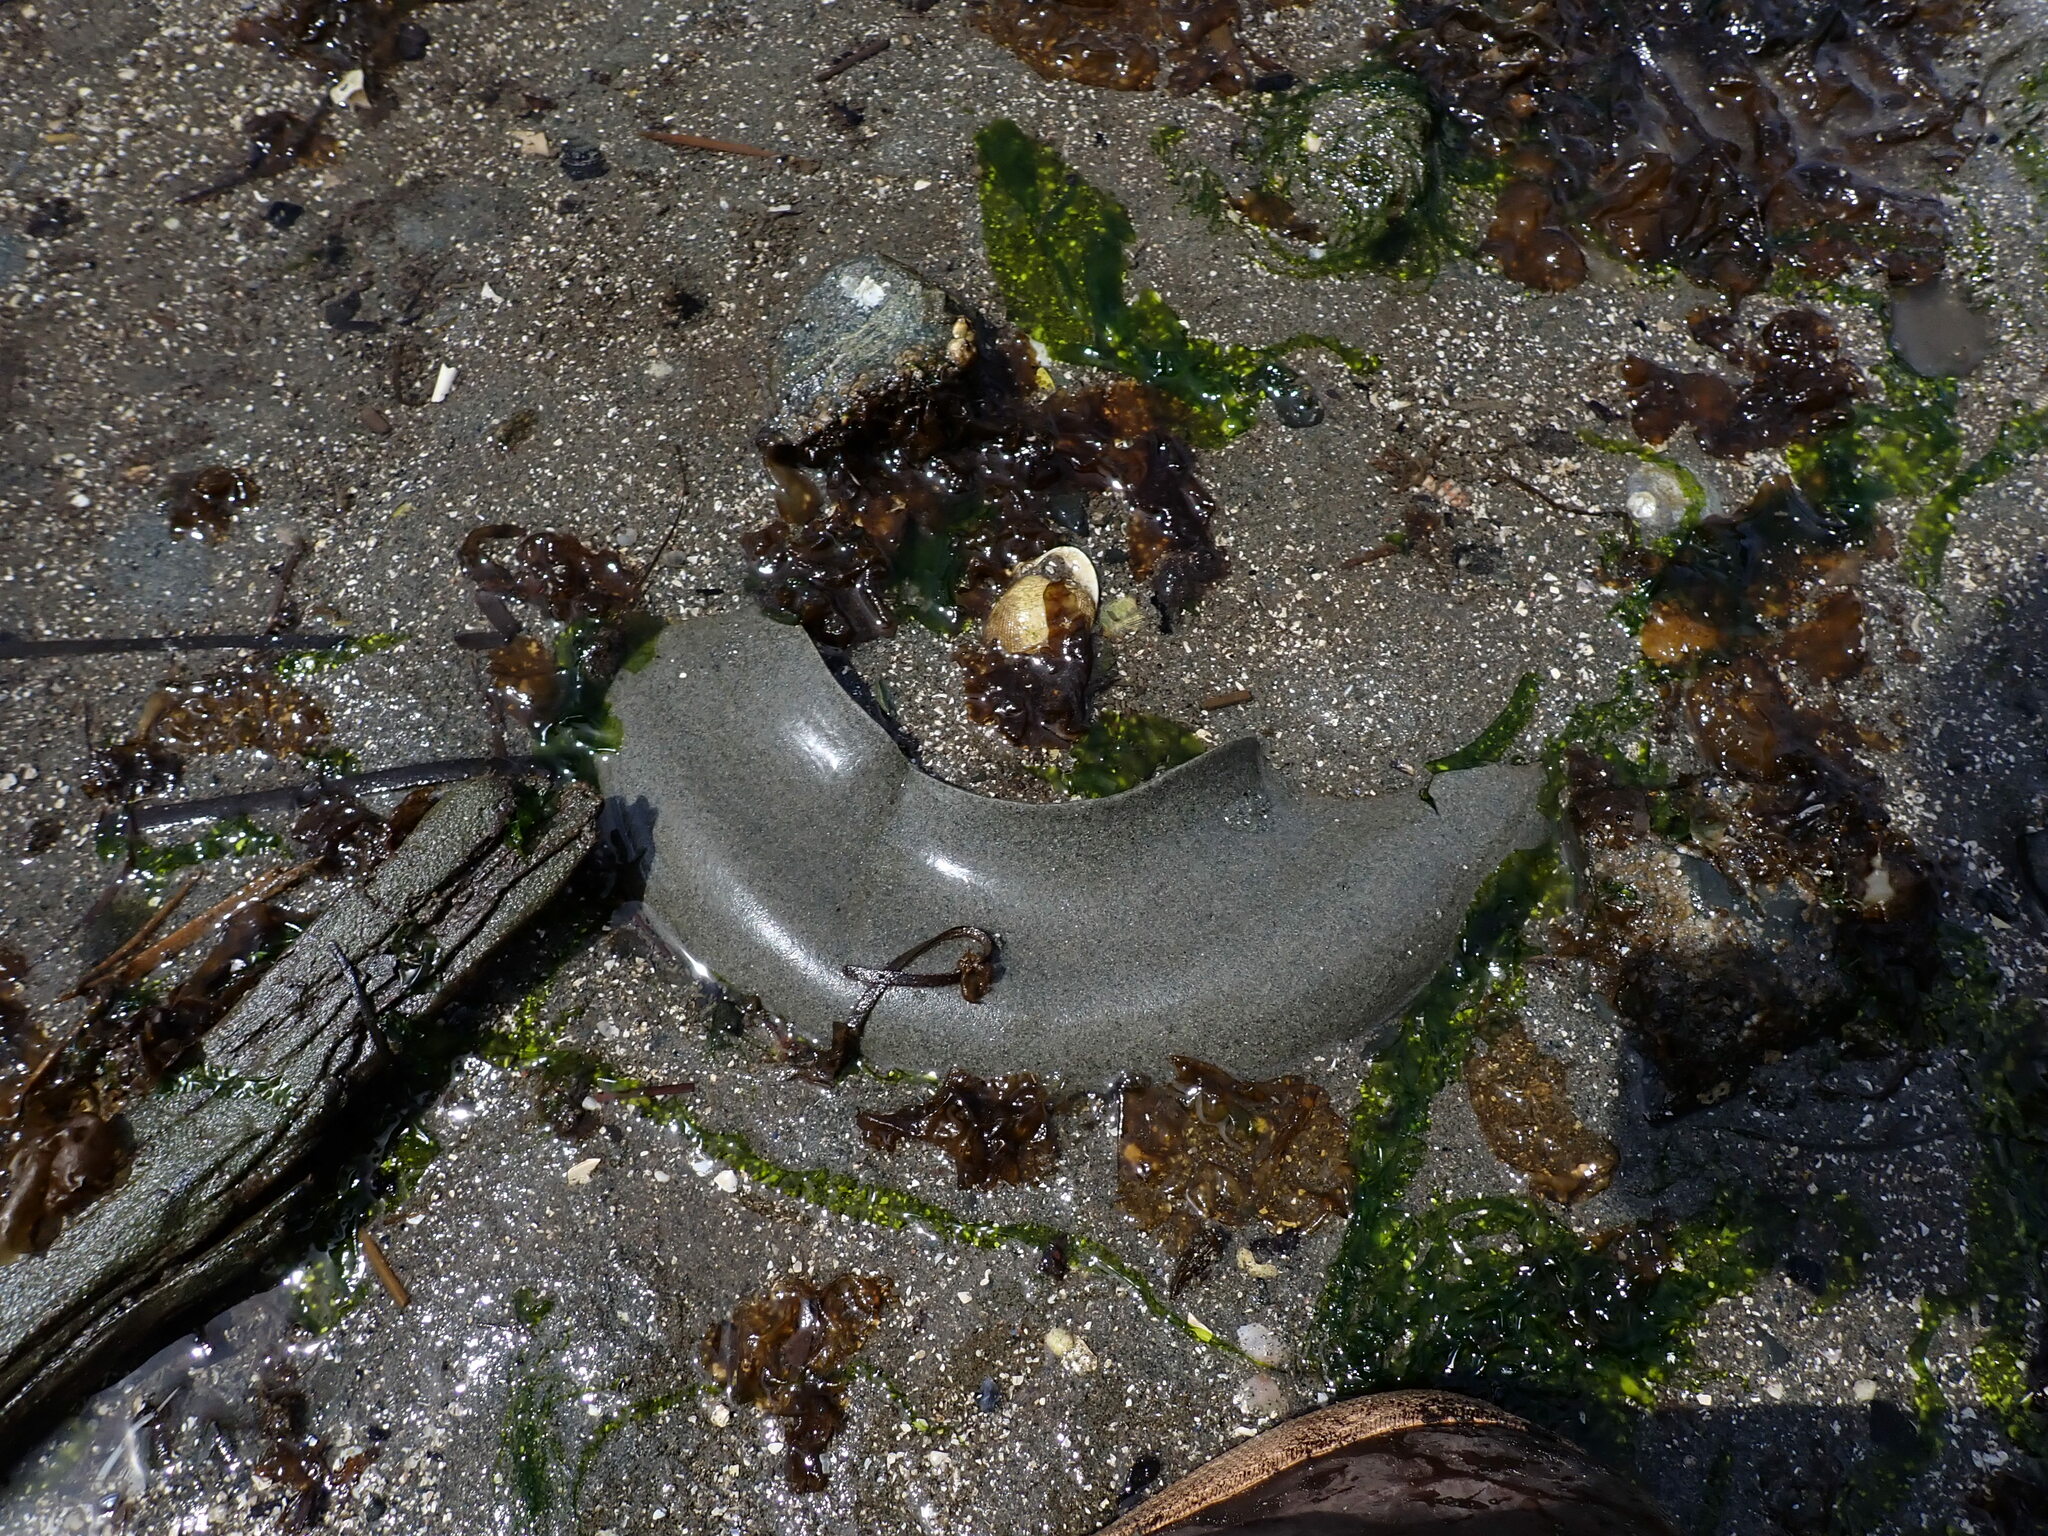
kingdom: Animalia
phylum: Mollusca
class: Gastropoda
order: Littorinimorpha
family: Naticidae
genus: Neverita
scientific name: Neverita lewisii
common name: Lewis' moonsnail
